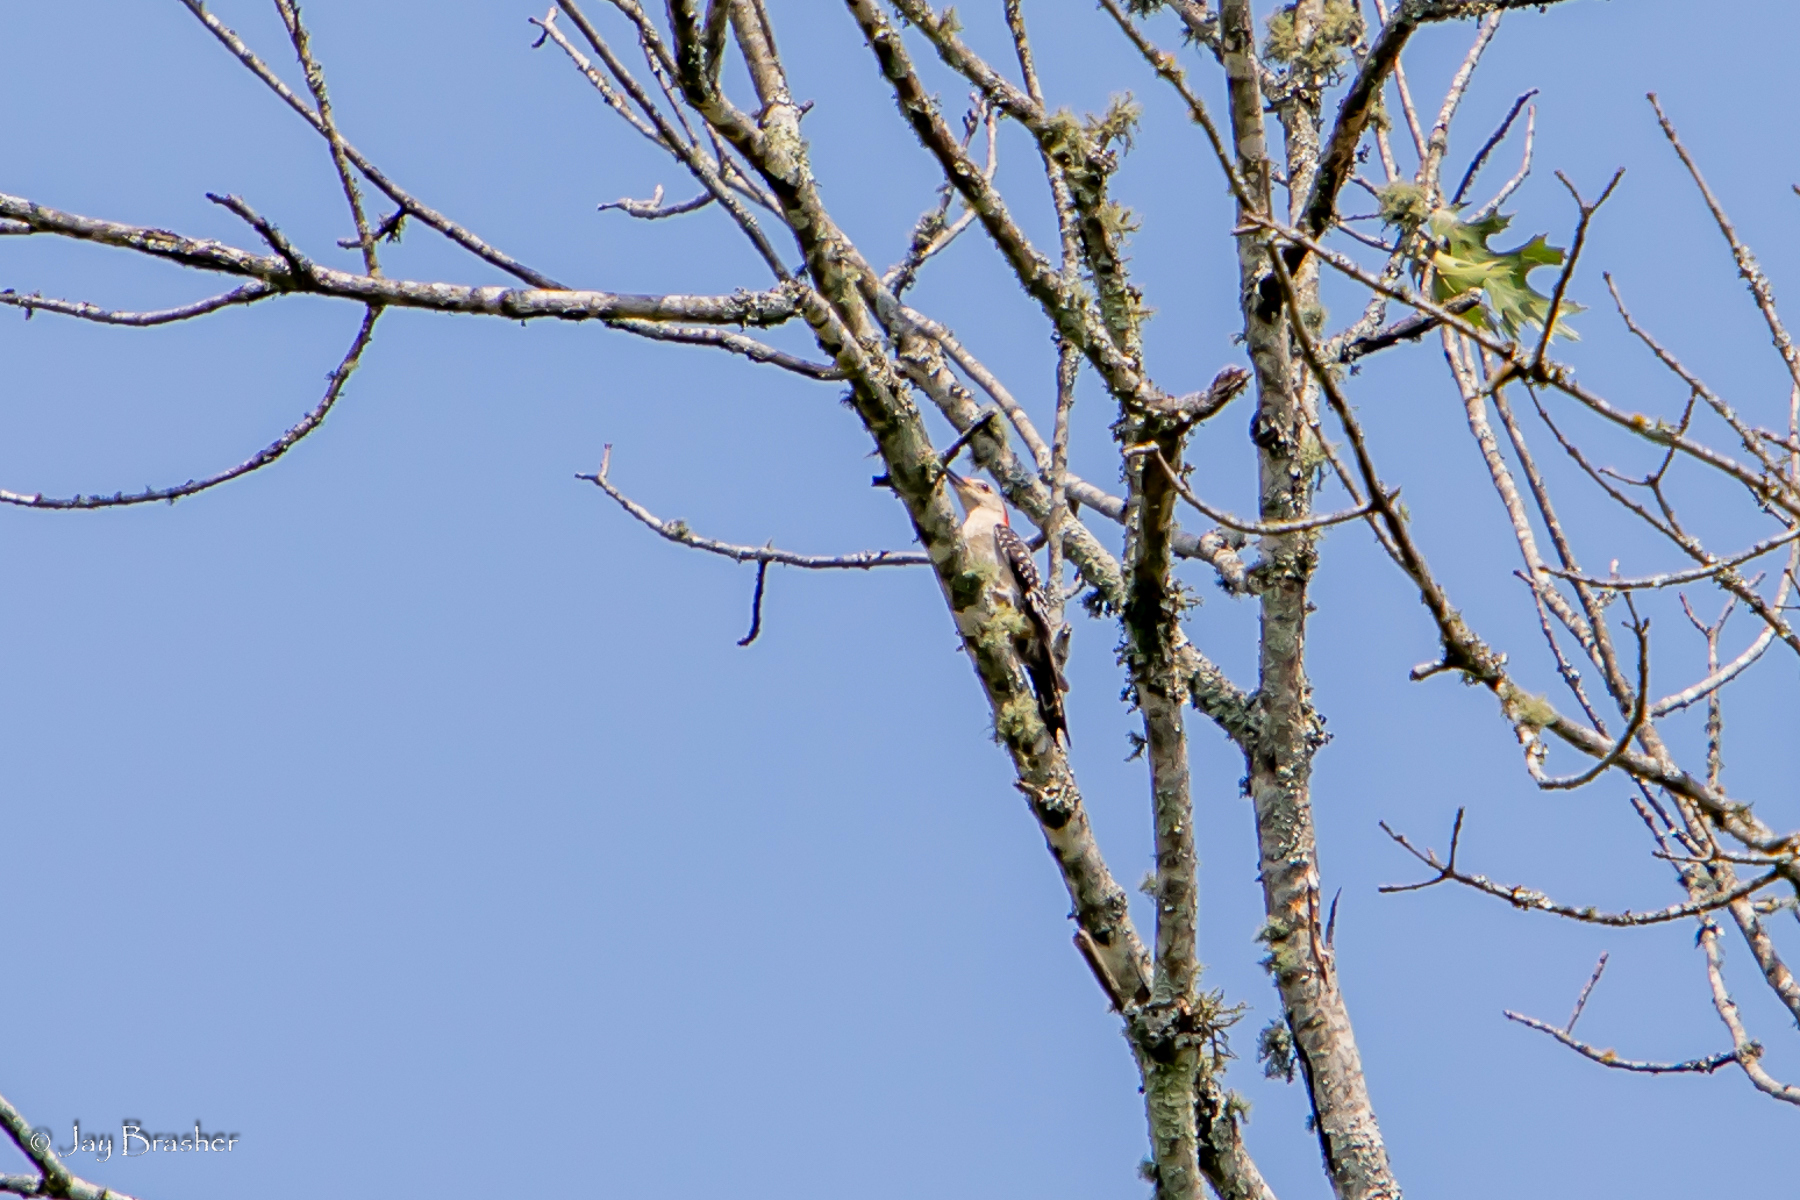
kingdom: Animalia
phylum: Chordata
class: Aves
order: Piciformes
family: Picidae
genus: Melanerpes
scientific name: Melanerpes carolinus
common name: Red-bellied woodpecker
